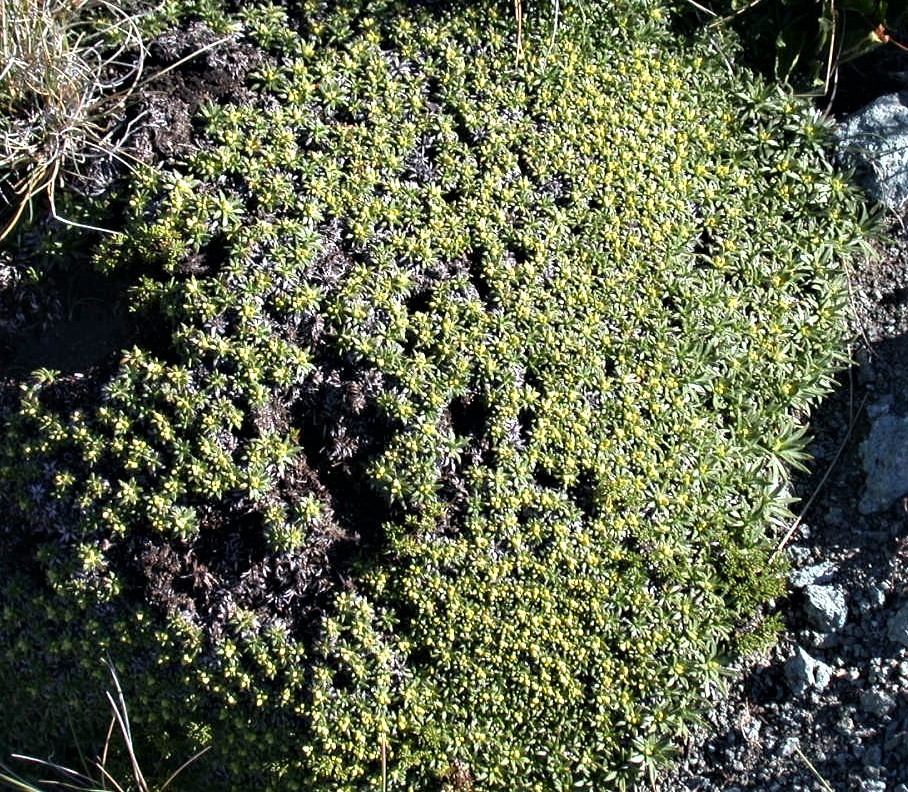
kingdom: Plantae
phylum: Tracheophyta
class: Magnoliopsida
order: Apiales
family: Apiaceae
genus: Azorella
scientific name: Azorella monantha
